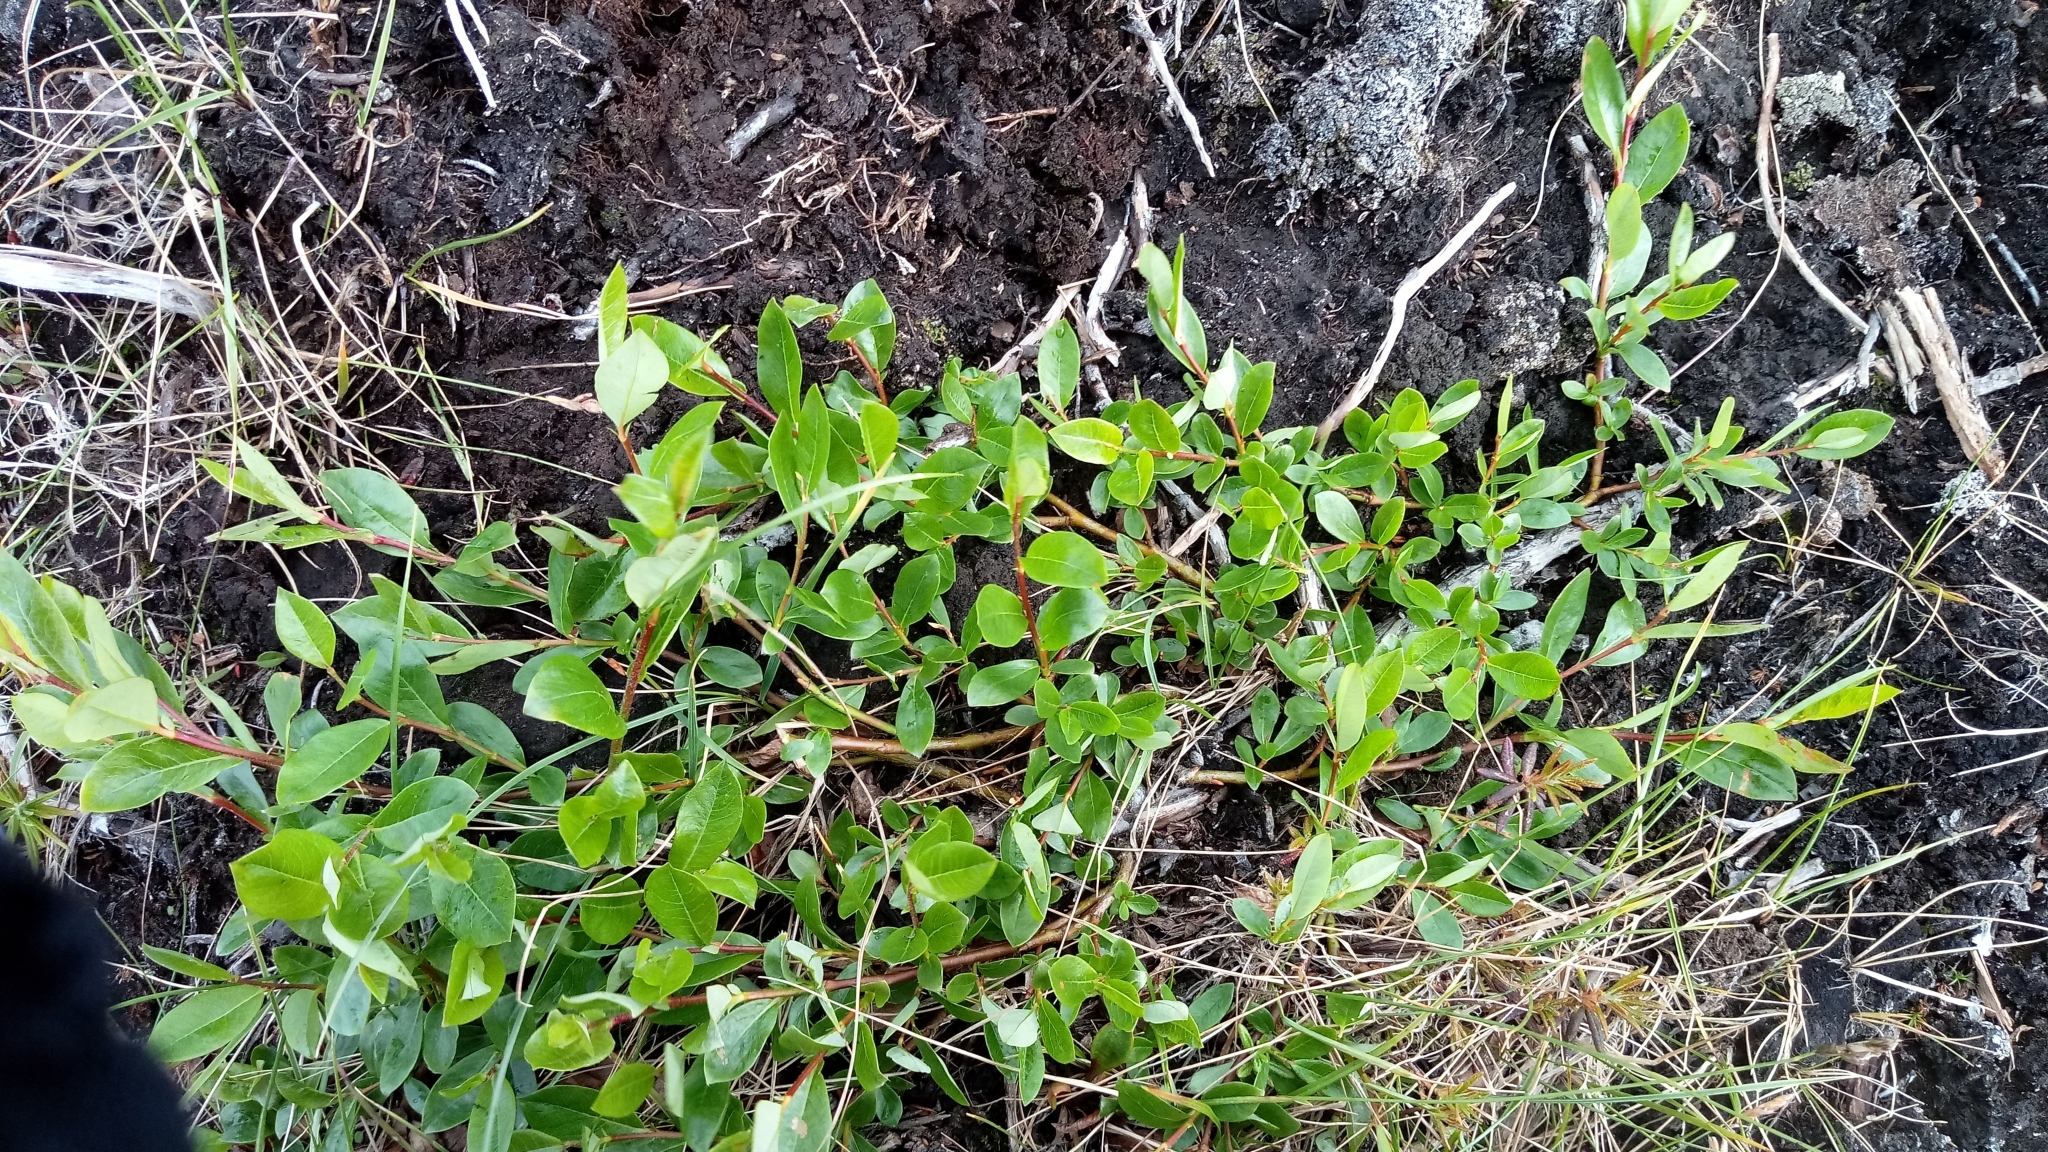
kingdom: Plantae
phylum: Tracheophyta
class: Magnoliopsida
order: Malpighiales
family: Salicaceae
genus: Salix
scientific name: Salix saxatilis
